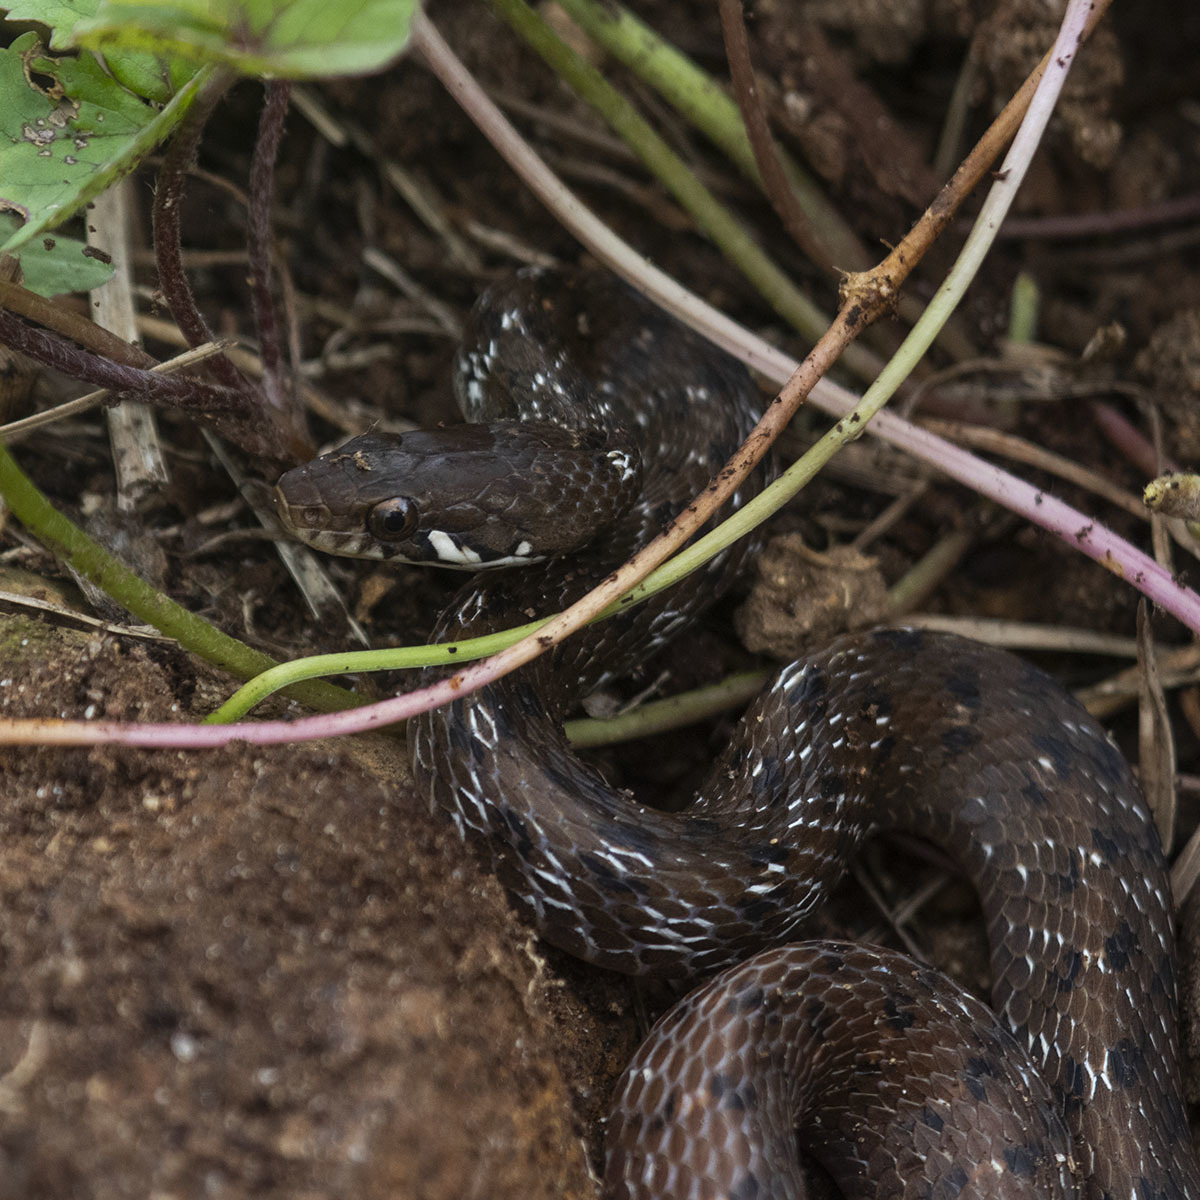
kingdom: Animalia
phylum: Chordata
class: Squamata
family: Colubridae
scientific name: Colubridae
